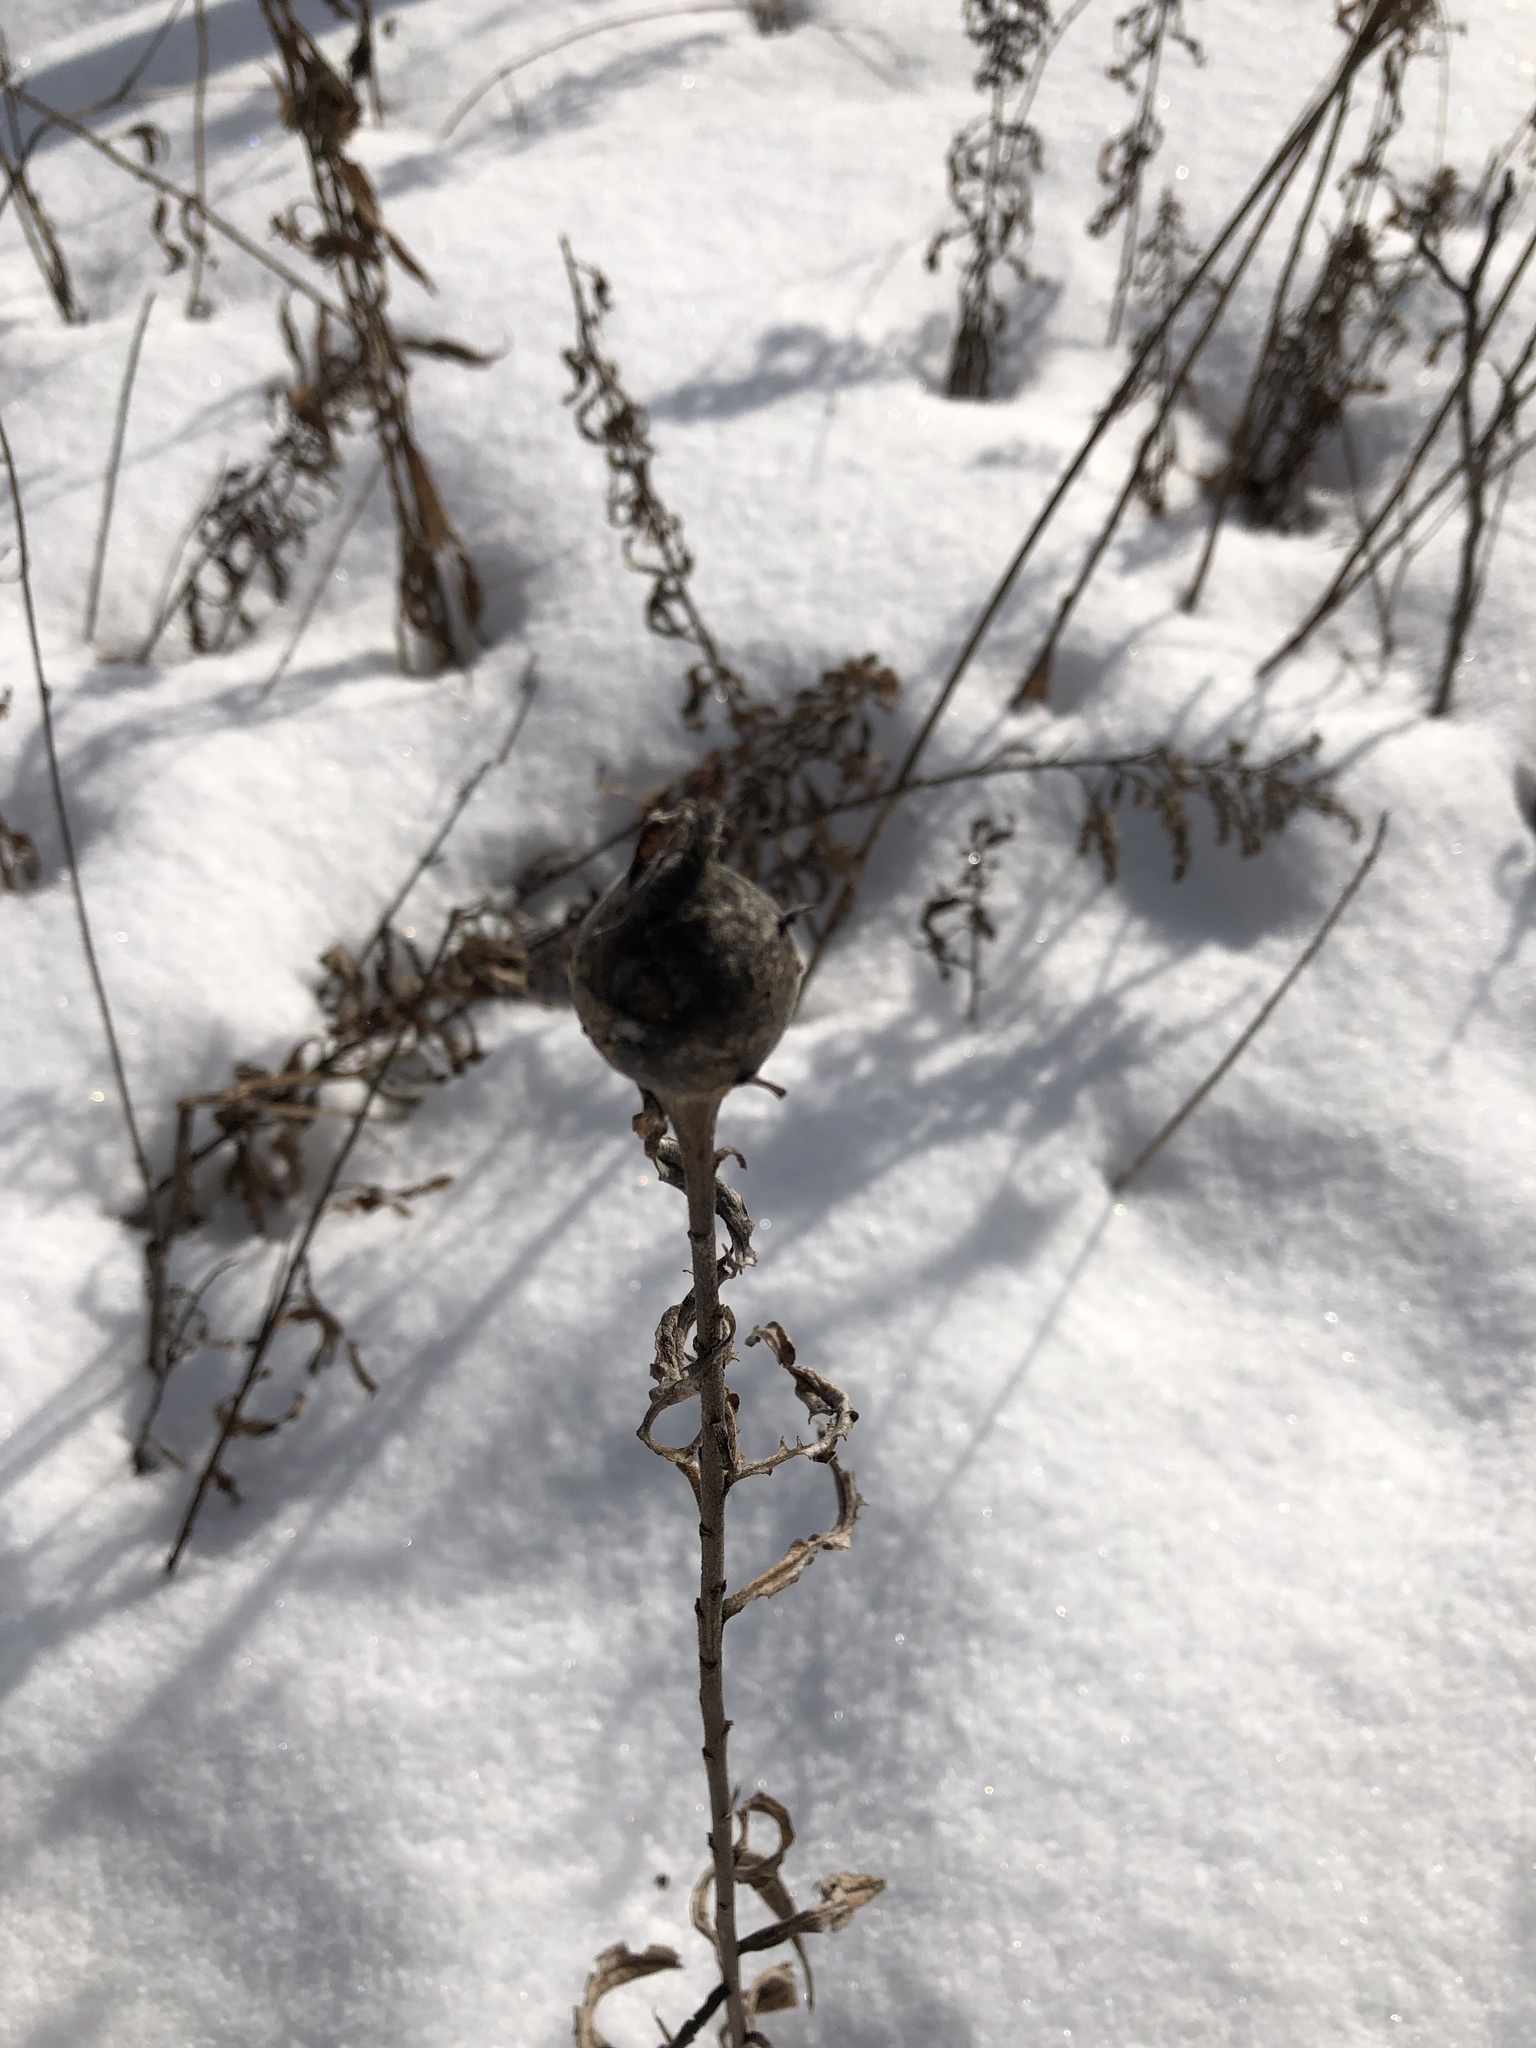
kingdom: Animalia
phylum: Arthropoda
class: Insecta
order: Diptera
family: Tephritidae
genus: Eurosta
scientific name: Eurosta solidaginis
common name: Goldenrod gall fly
